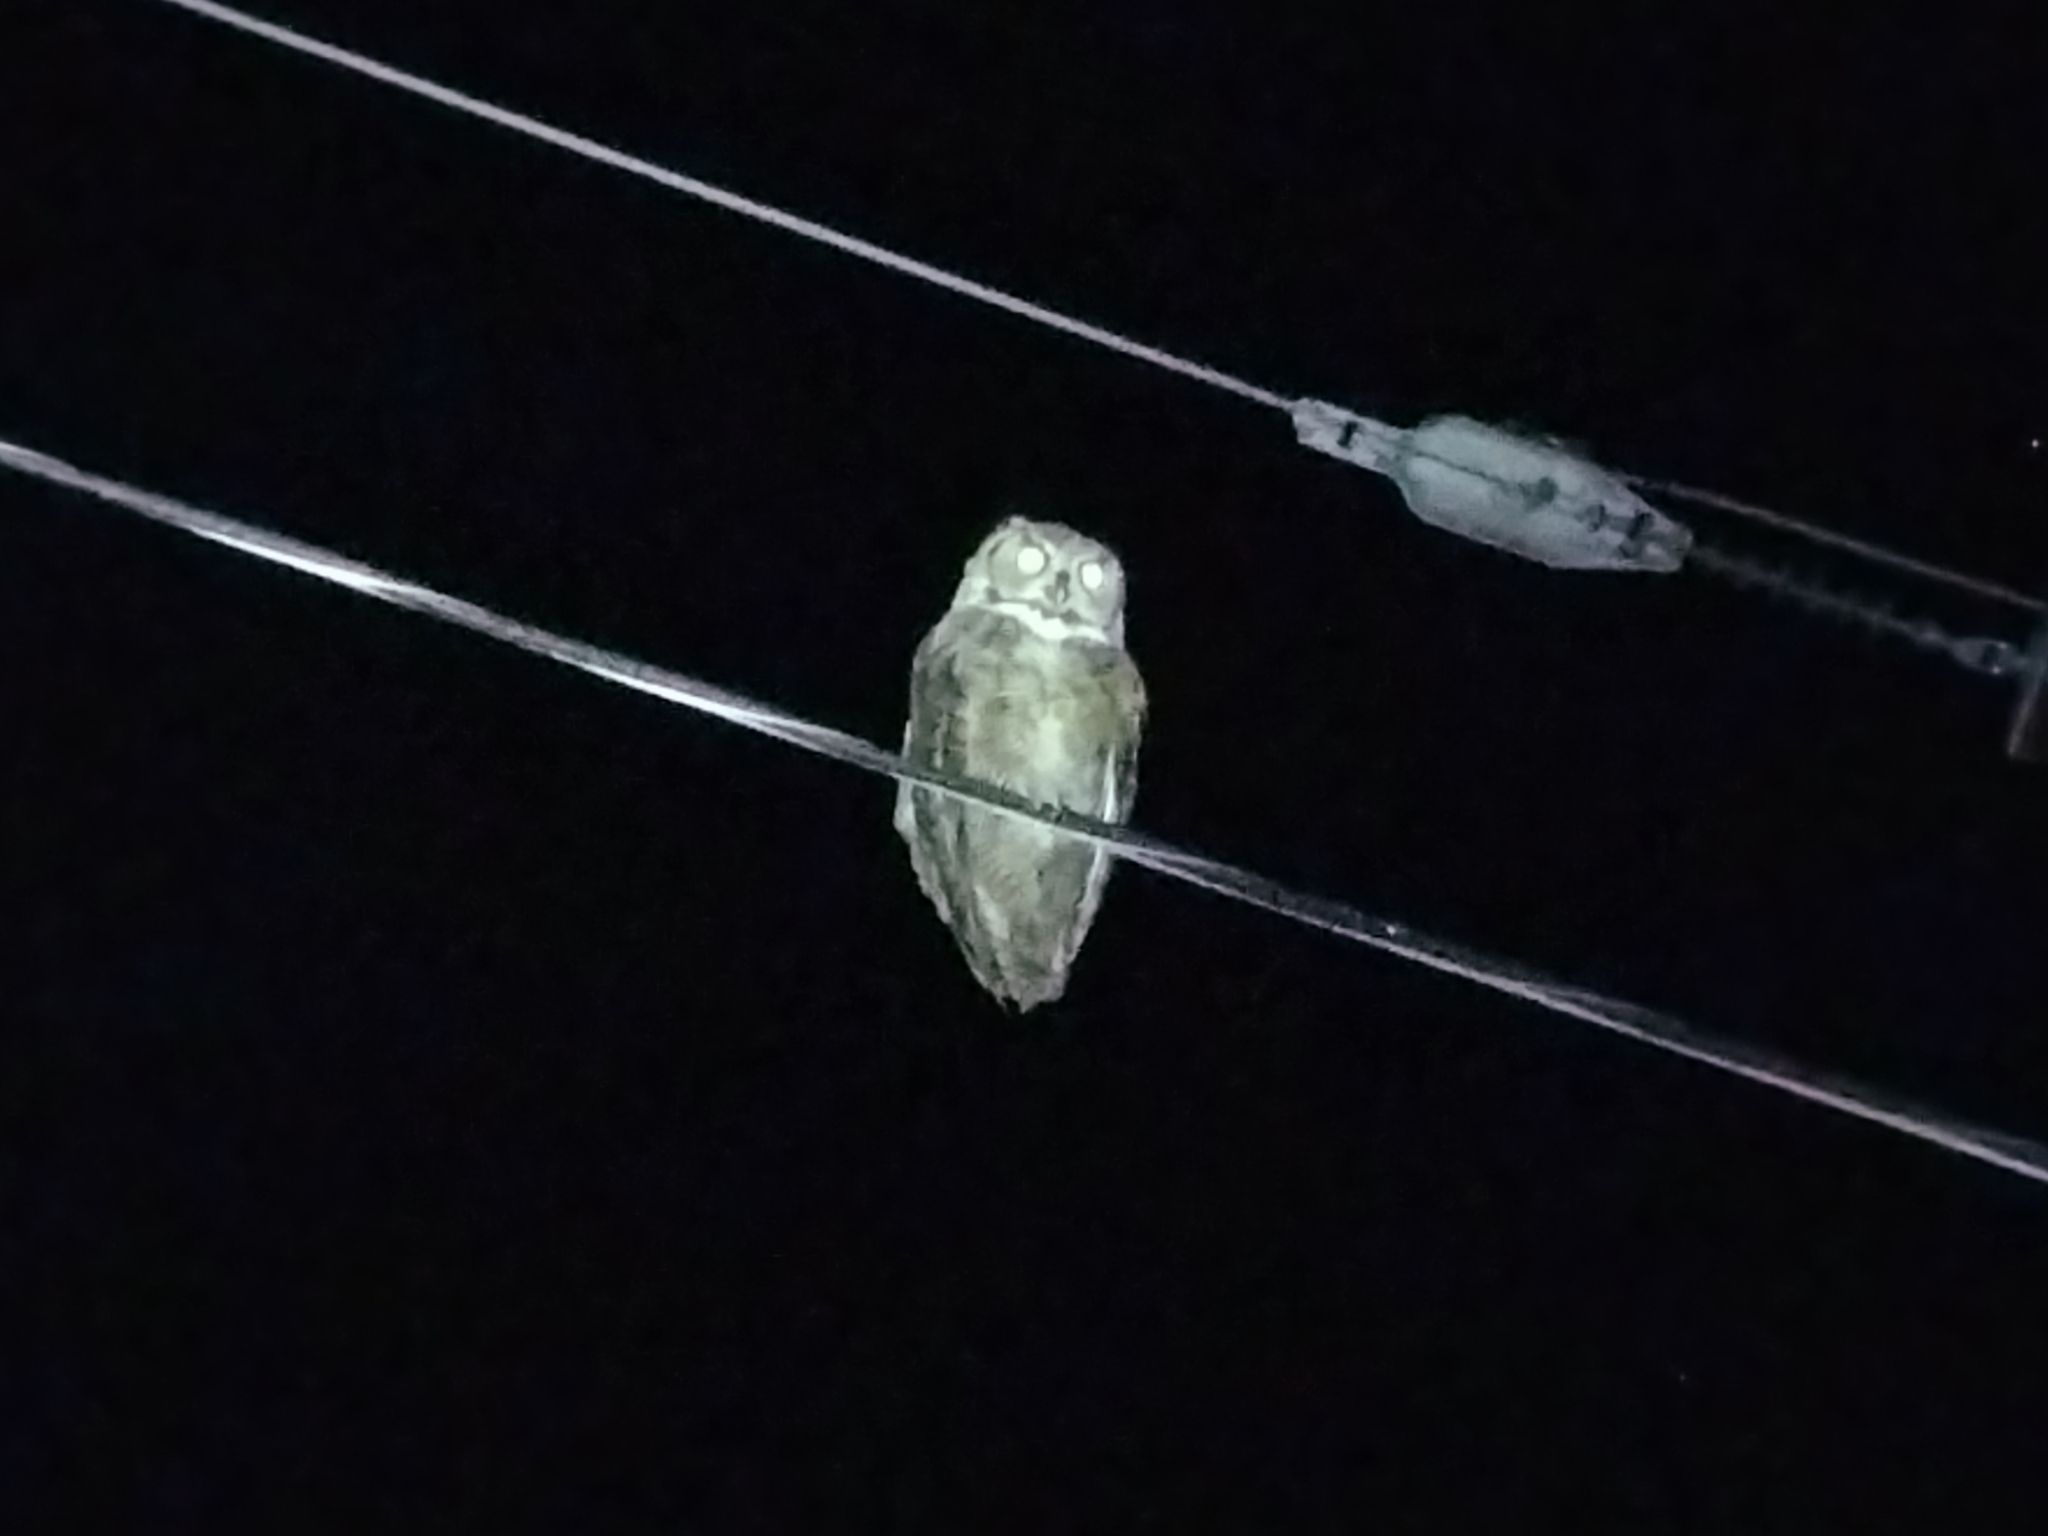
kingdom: Animalia
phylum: Chordata
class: Aves
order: Strigiformes
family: Strigidae
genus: Bubo
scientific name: Bubo virginianus
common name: Great horned owl
